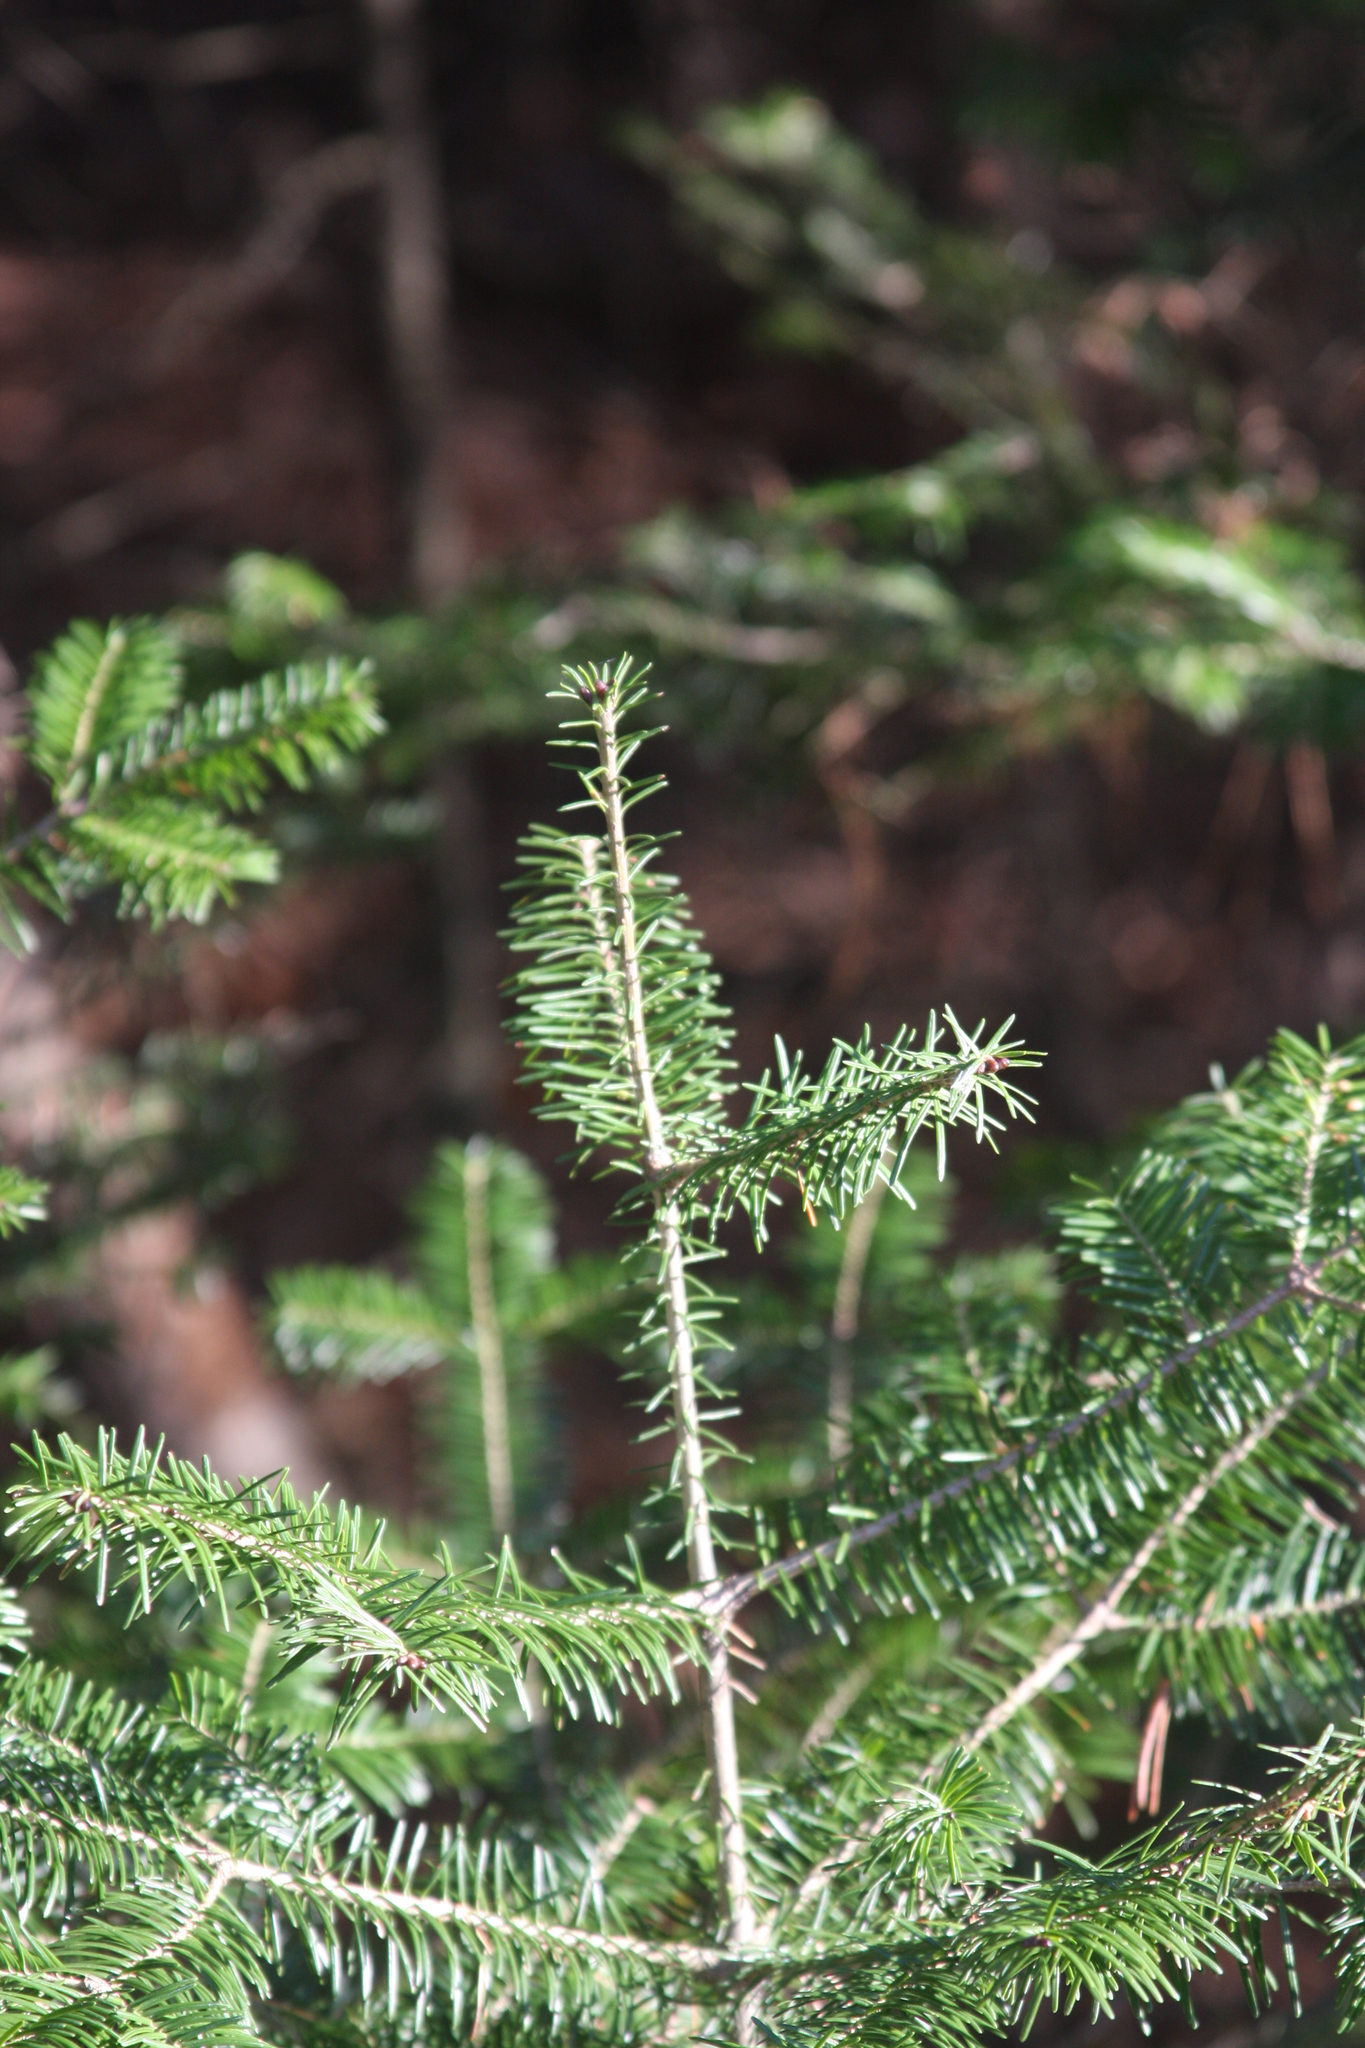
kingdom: Plantae
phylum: Tracheophyta
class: Pinopsida
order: Pinales
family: Pinaceae
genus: Abies
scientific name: Abies balsamea
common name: Balsam fir
